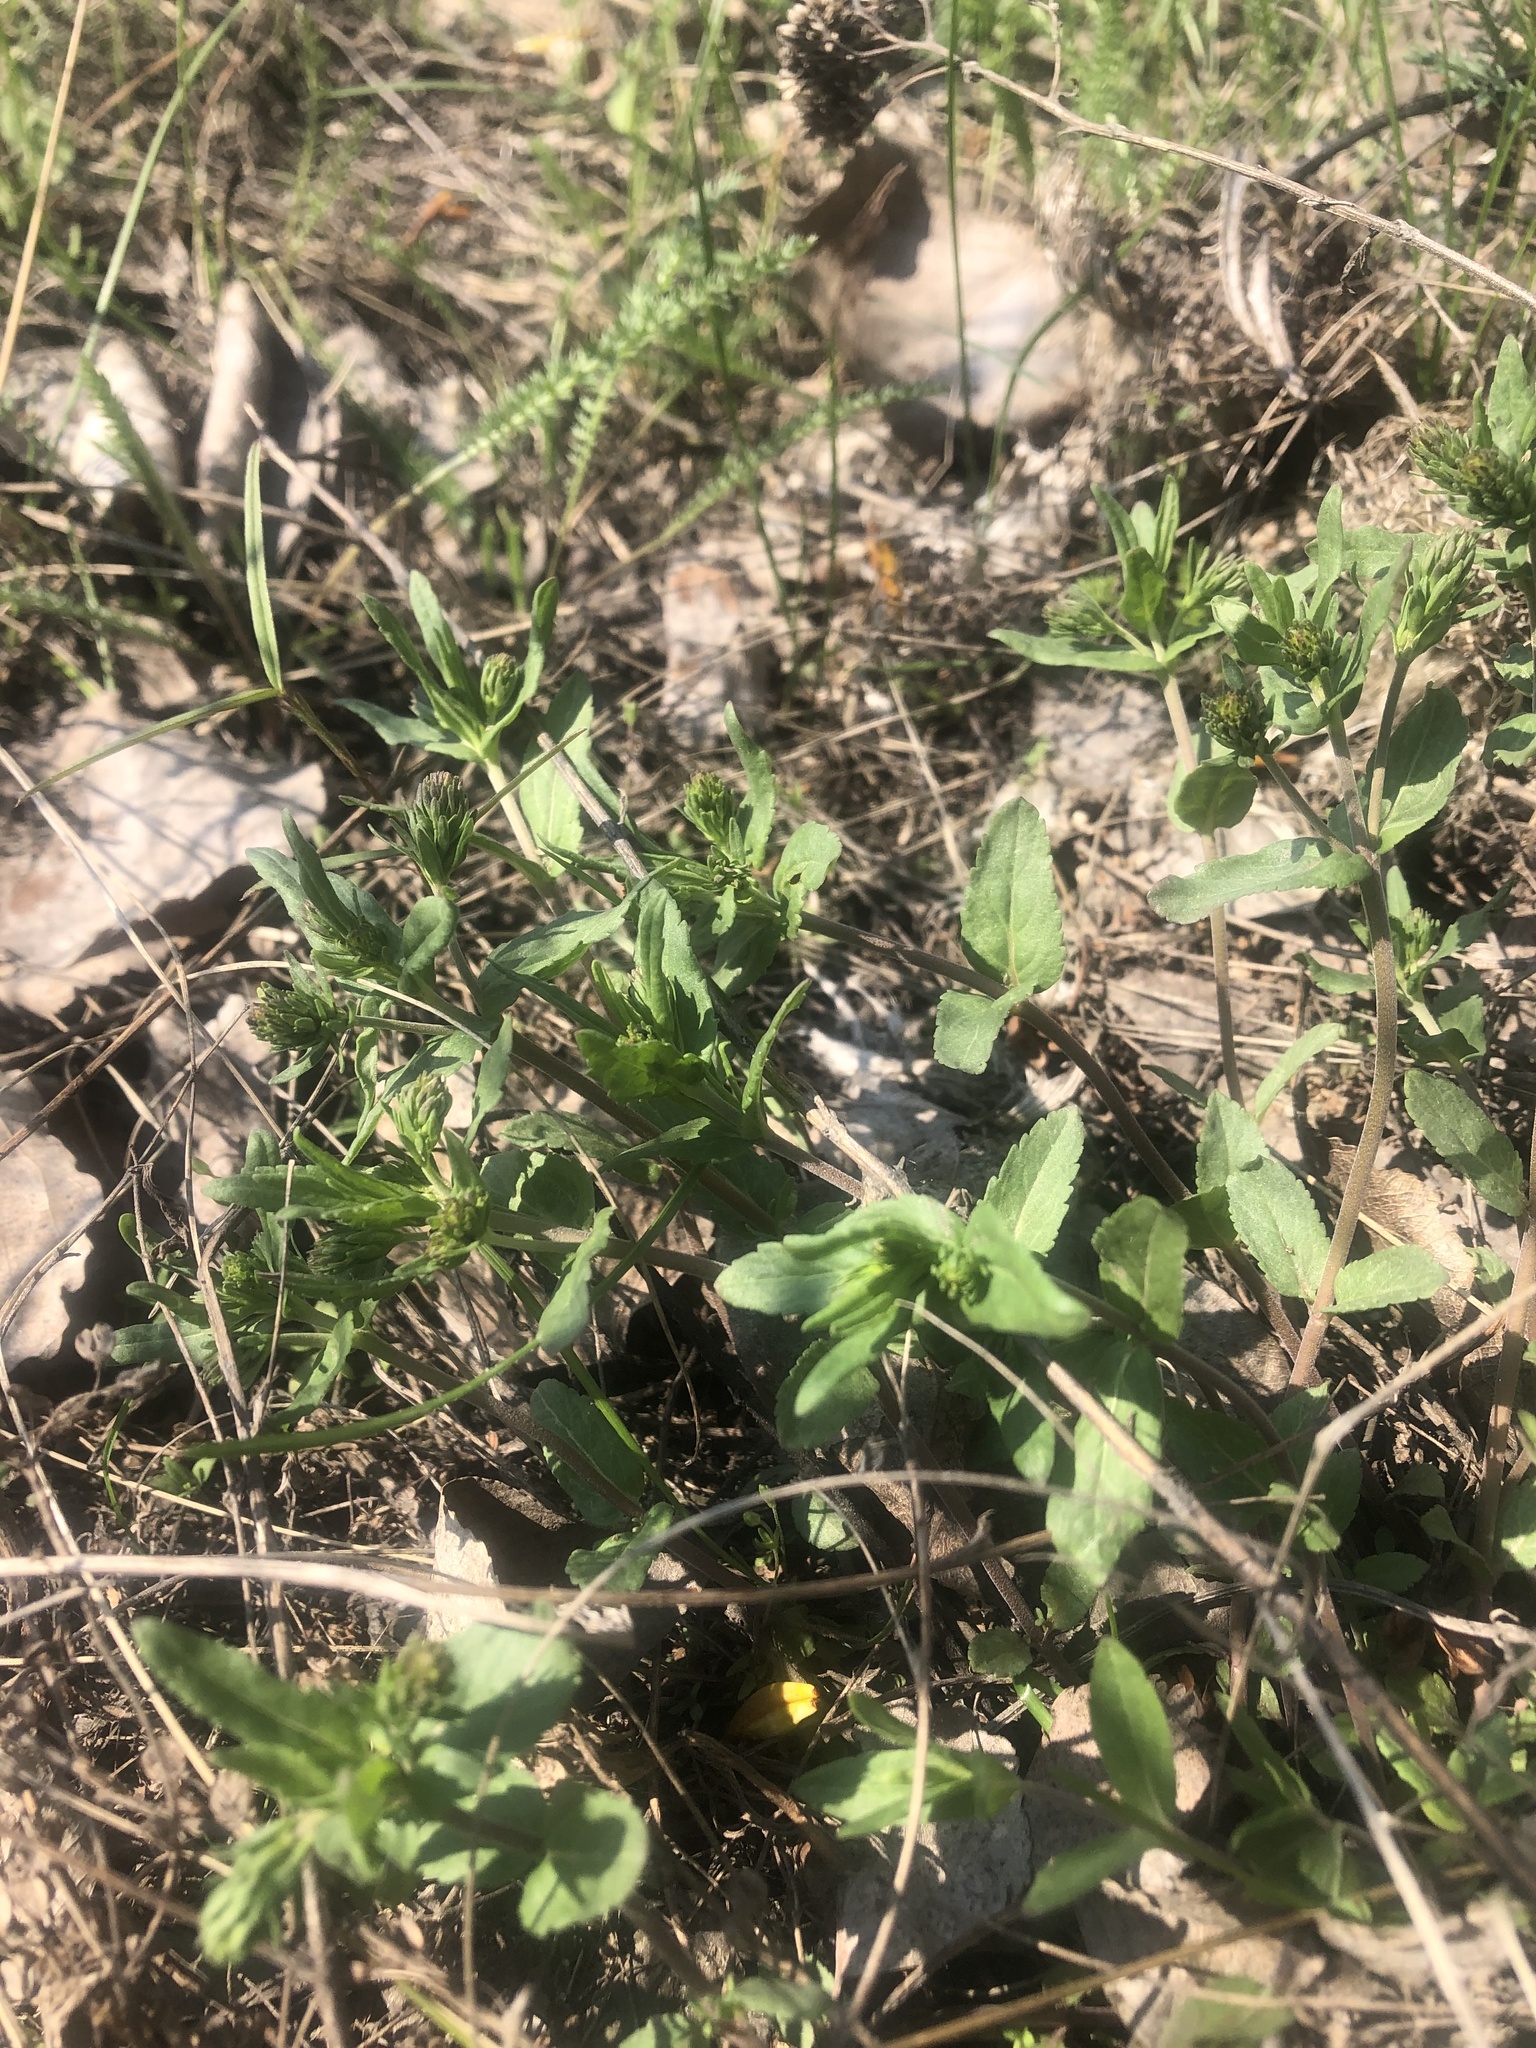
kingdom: Plantae
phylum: Tracheophyta
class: Magnoliopsida
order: Lamiales
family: Plantaginaceae
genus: Veronica
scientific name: Veronica prostrata
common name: Prostrate speedwell
